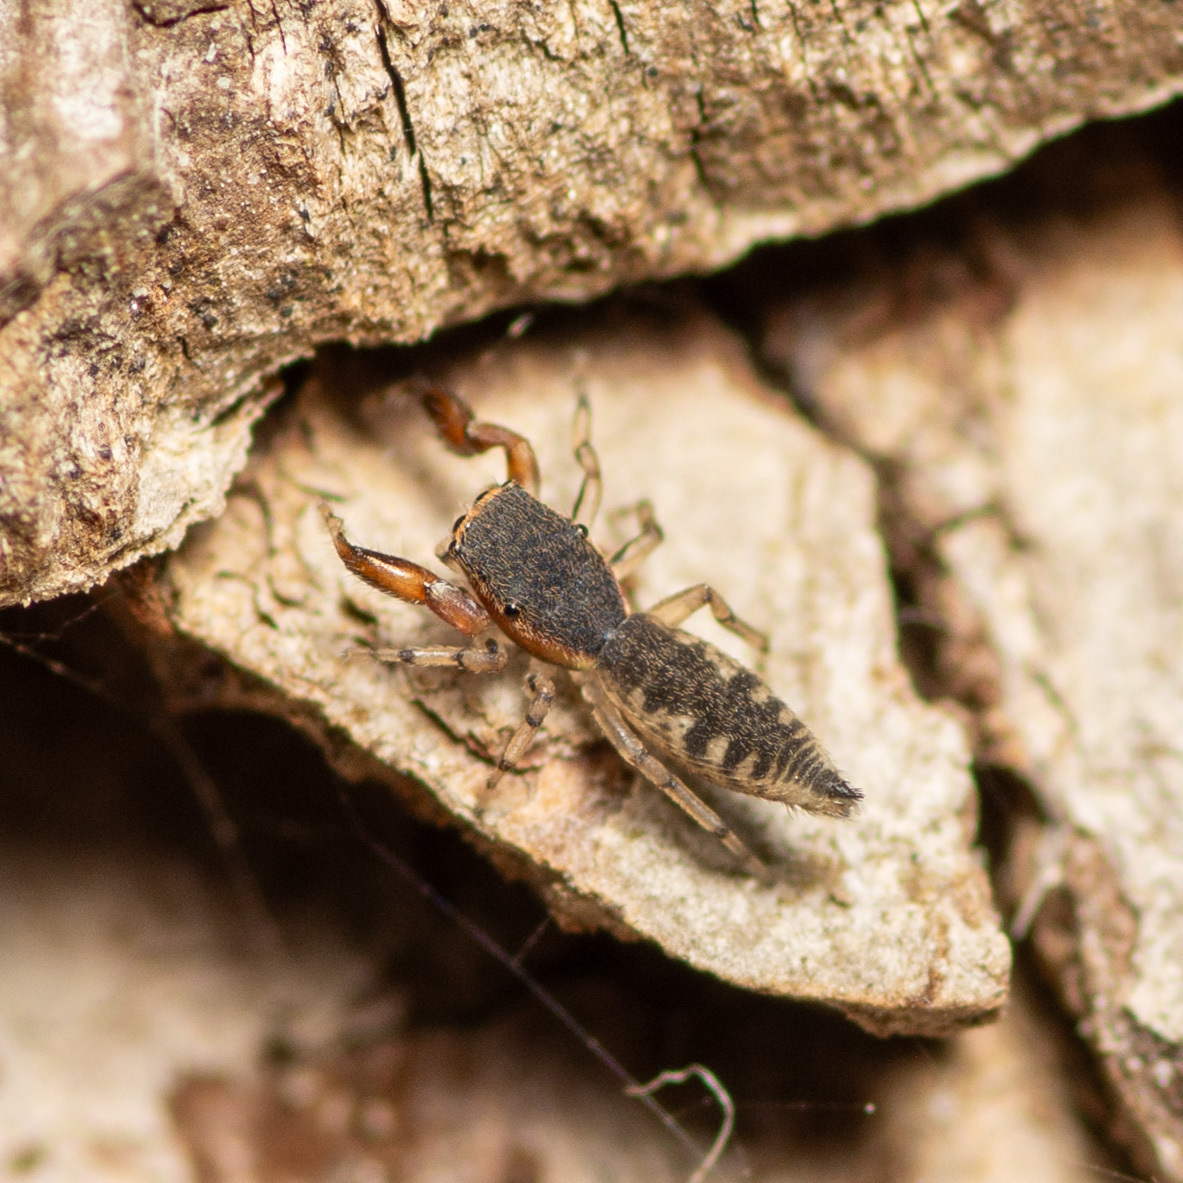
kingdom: Animalia
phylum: Arthropoda
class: Arachnida
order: Araneae
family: Salticidae
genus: Cheliferoides
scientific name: Cheliferoides segmentatus
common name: Jumping spiders
